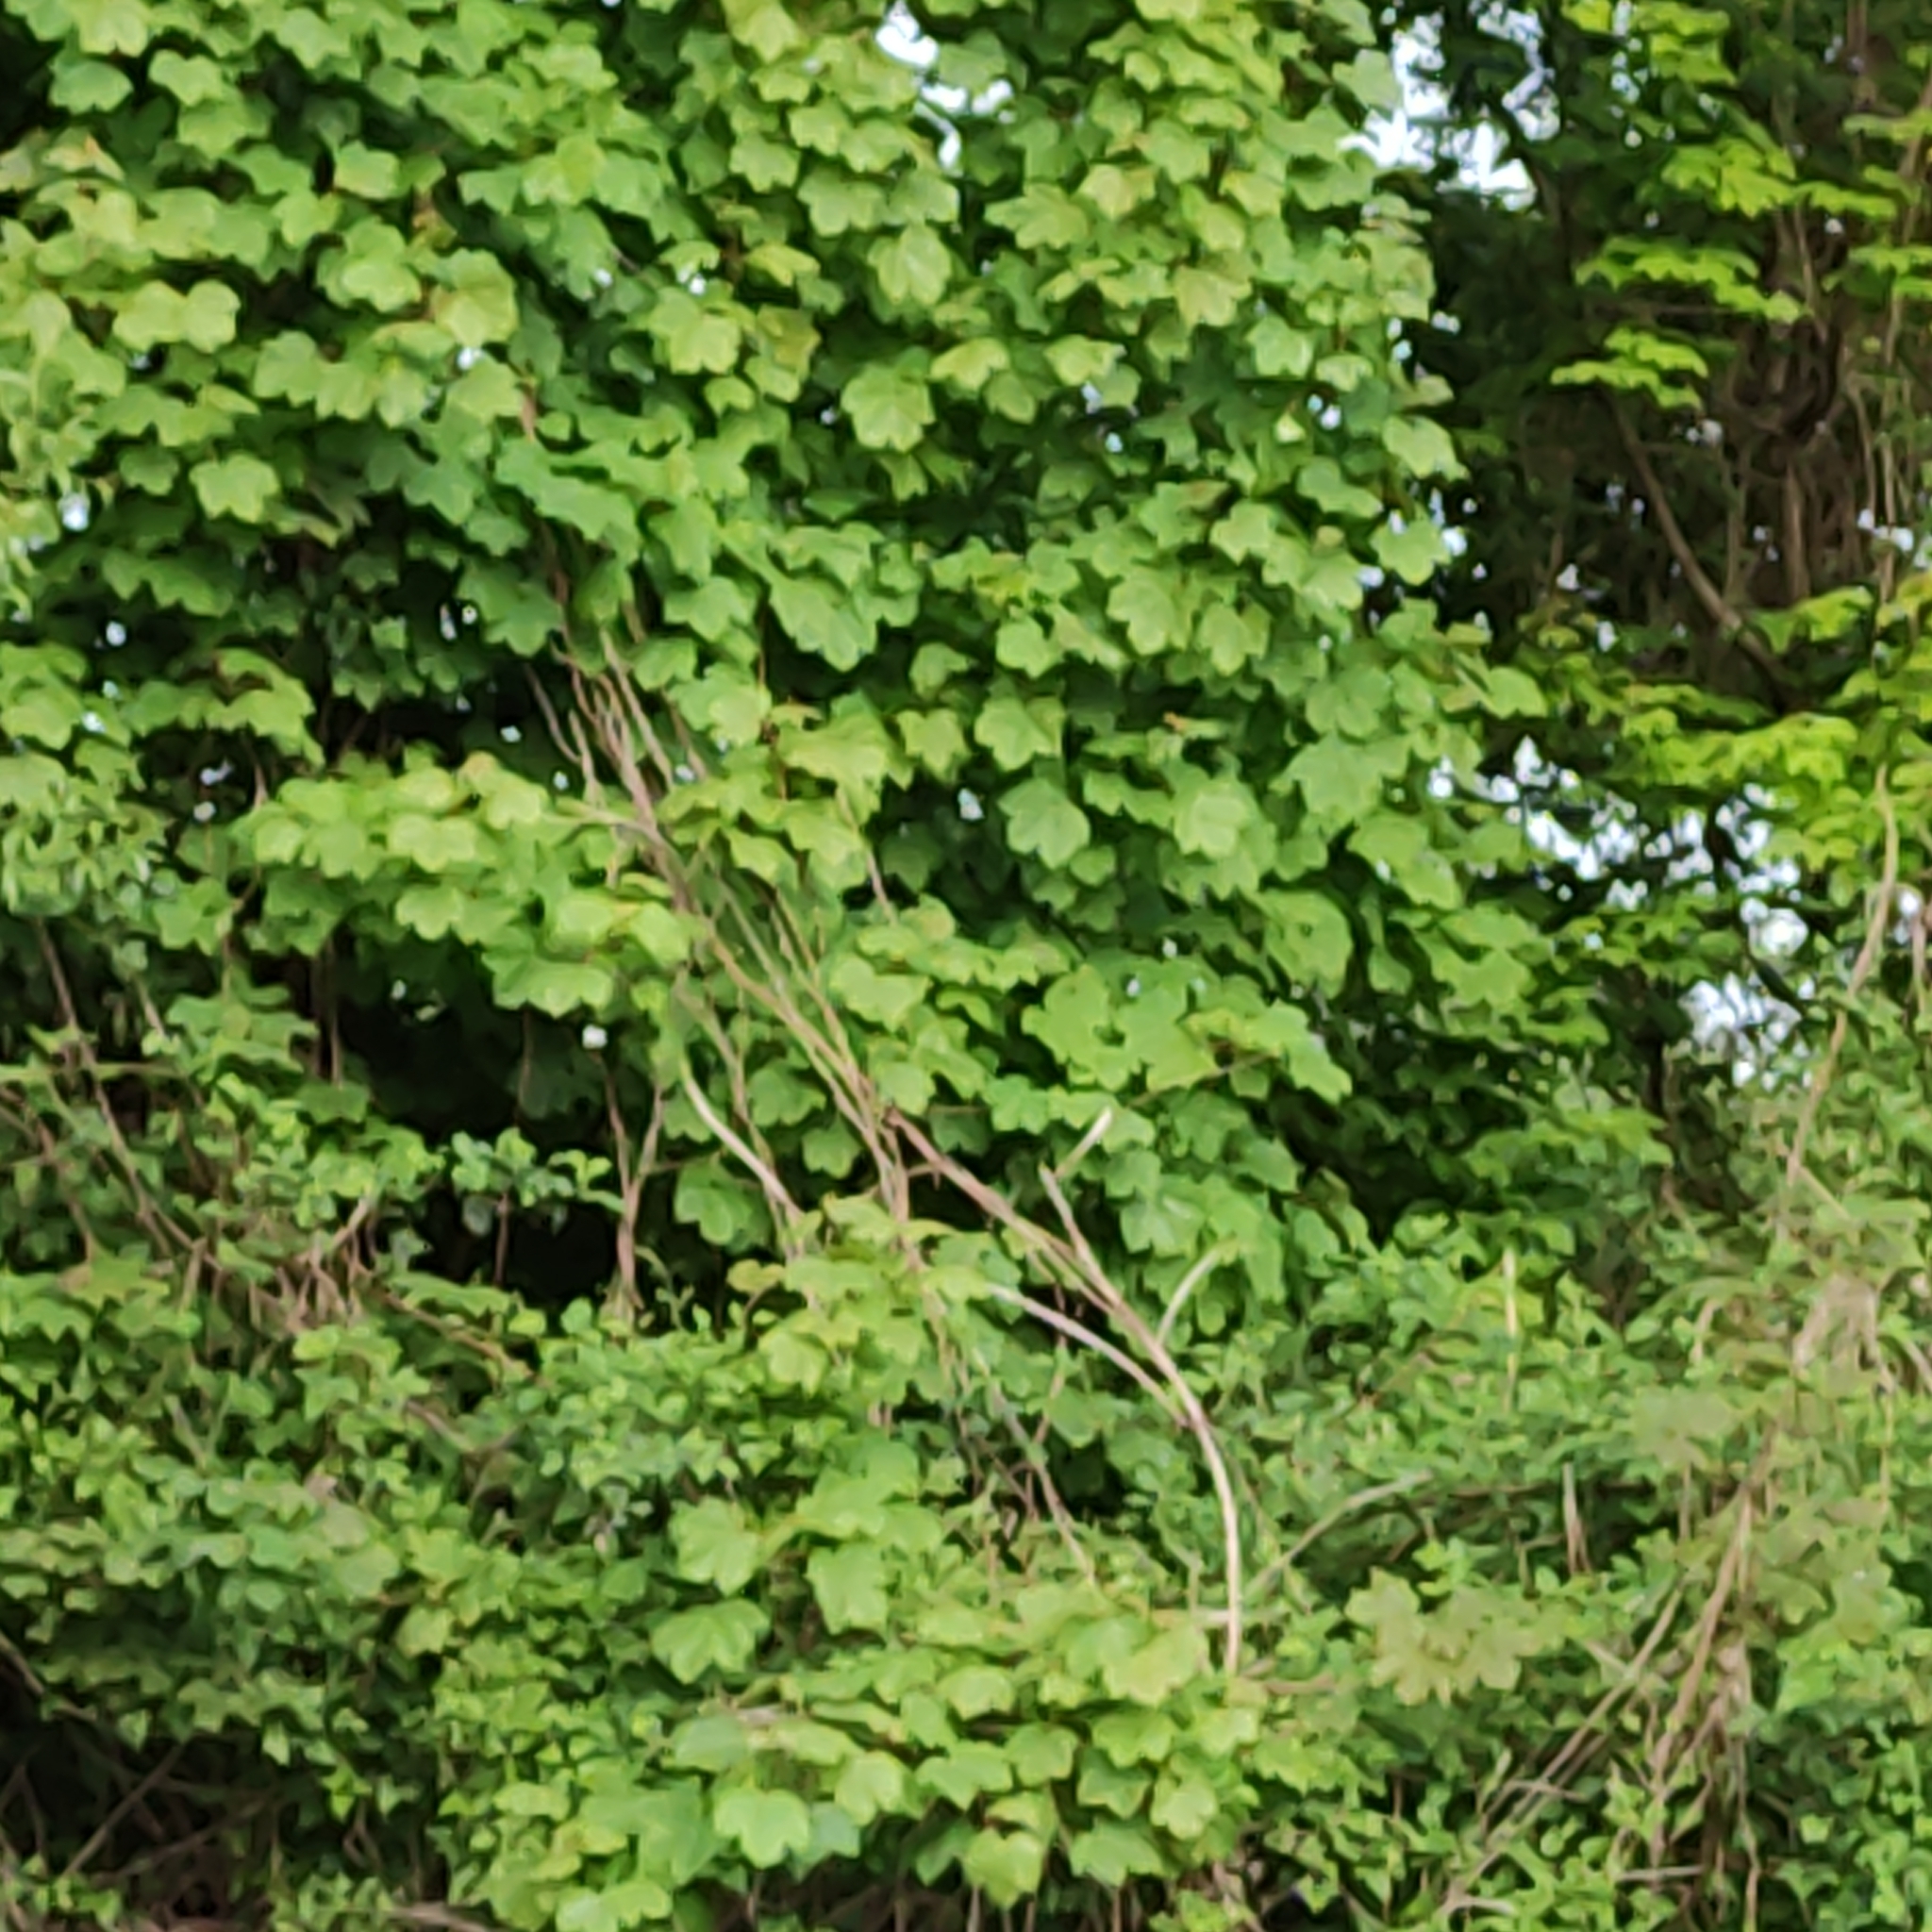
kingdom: Plantae
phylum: Tracheophyta
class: Magnoliopsida
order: Sapindales
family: Sapindaceae
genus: Acer
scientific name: Acer pseudoplatanus
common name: Sycamore
